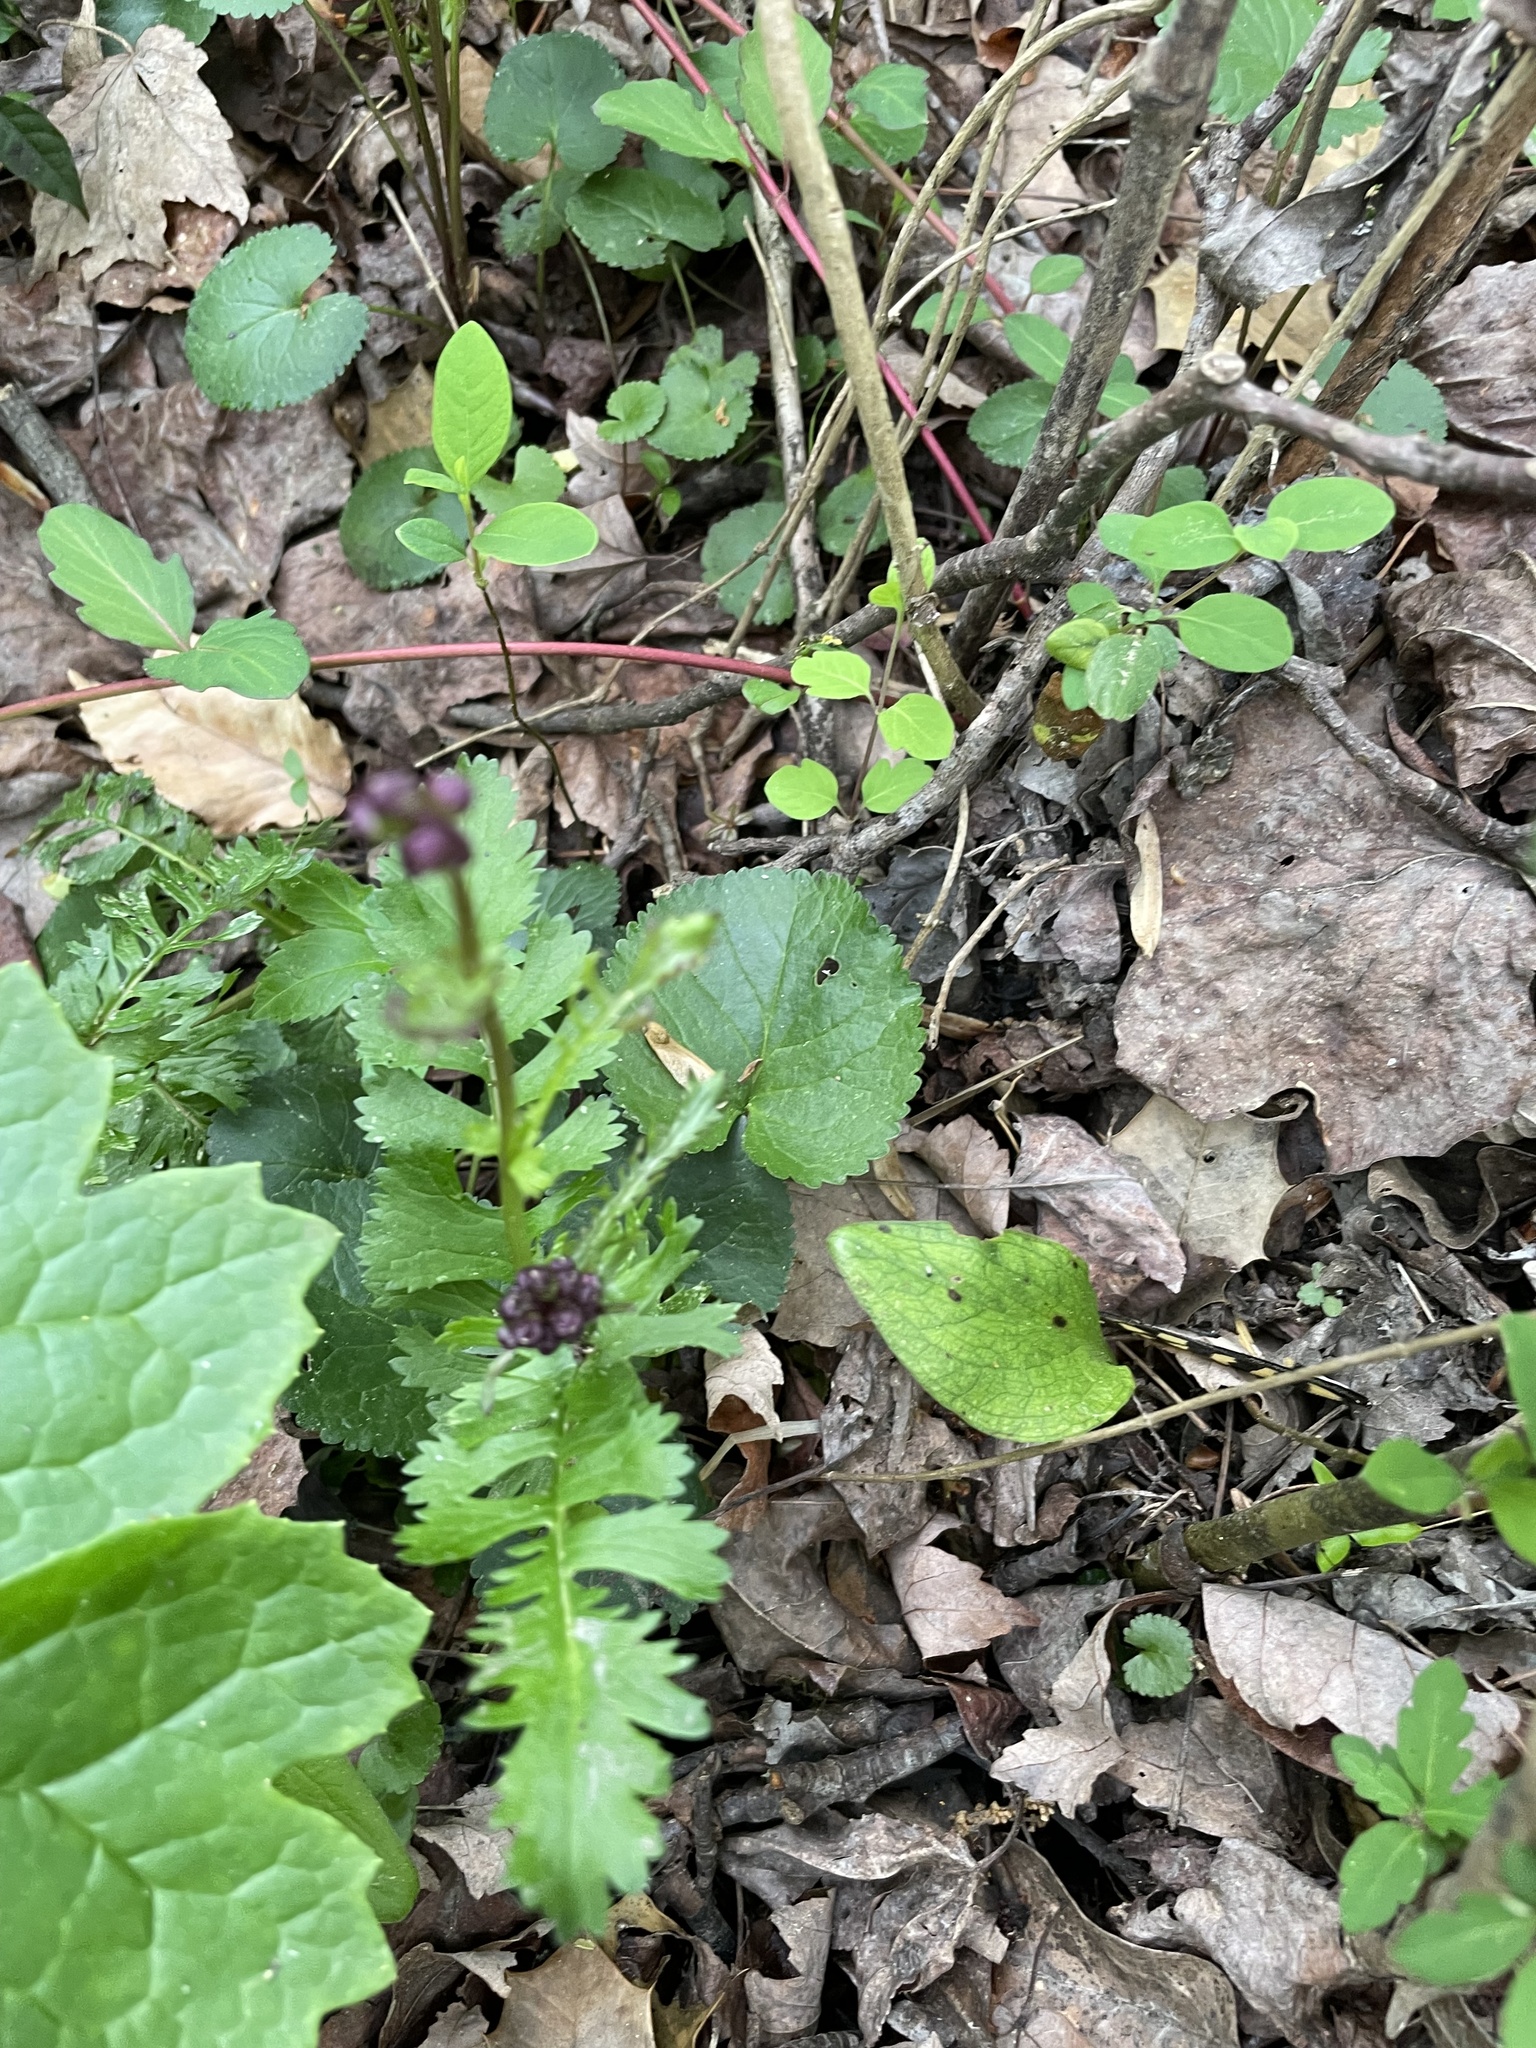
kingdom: Plantae
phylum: Tracheophyta
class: Magnoliopsida
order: Asterales
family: Asteraceae
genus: Packera
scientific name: Packera aurea
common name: Golden groundsel
